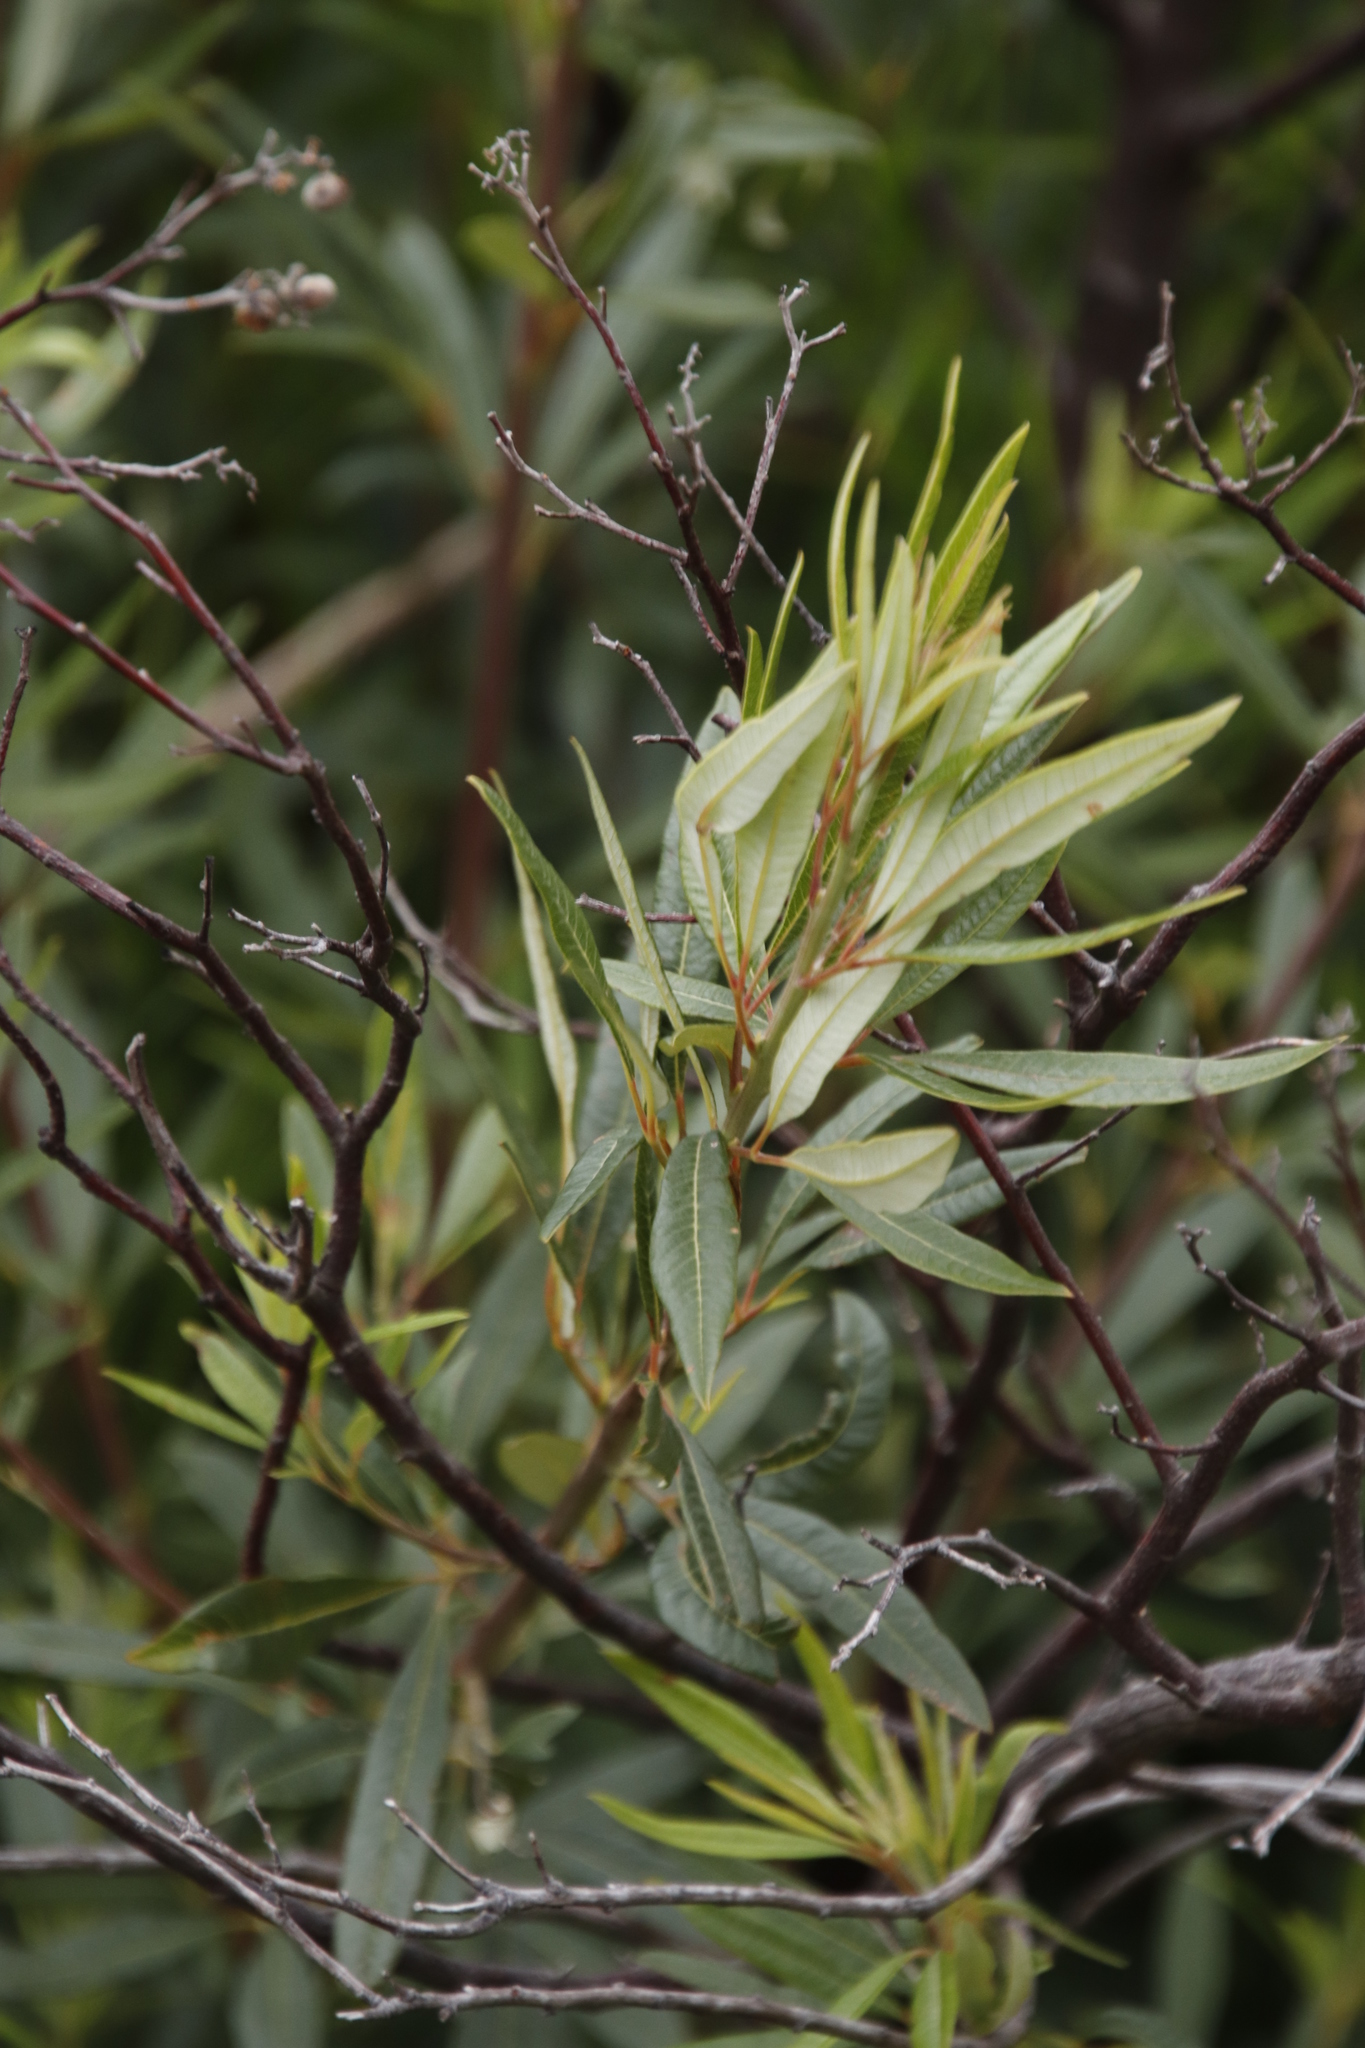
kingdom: Plantae
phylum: Tracheophyta
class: Magnoliopsida
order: Sapindales
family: Anacardiaceae
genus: Searsia
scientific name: Searsia angustifolia
